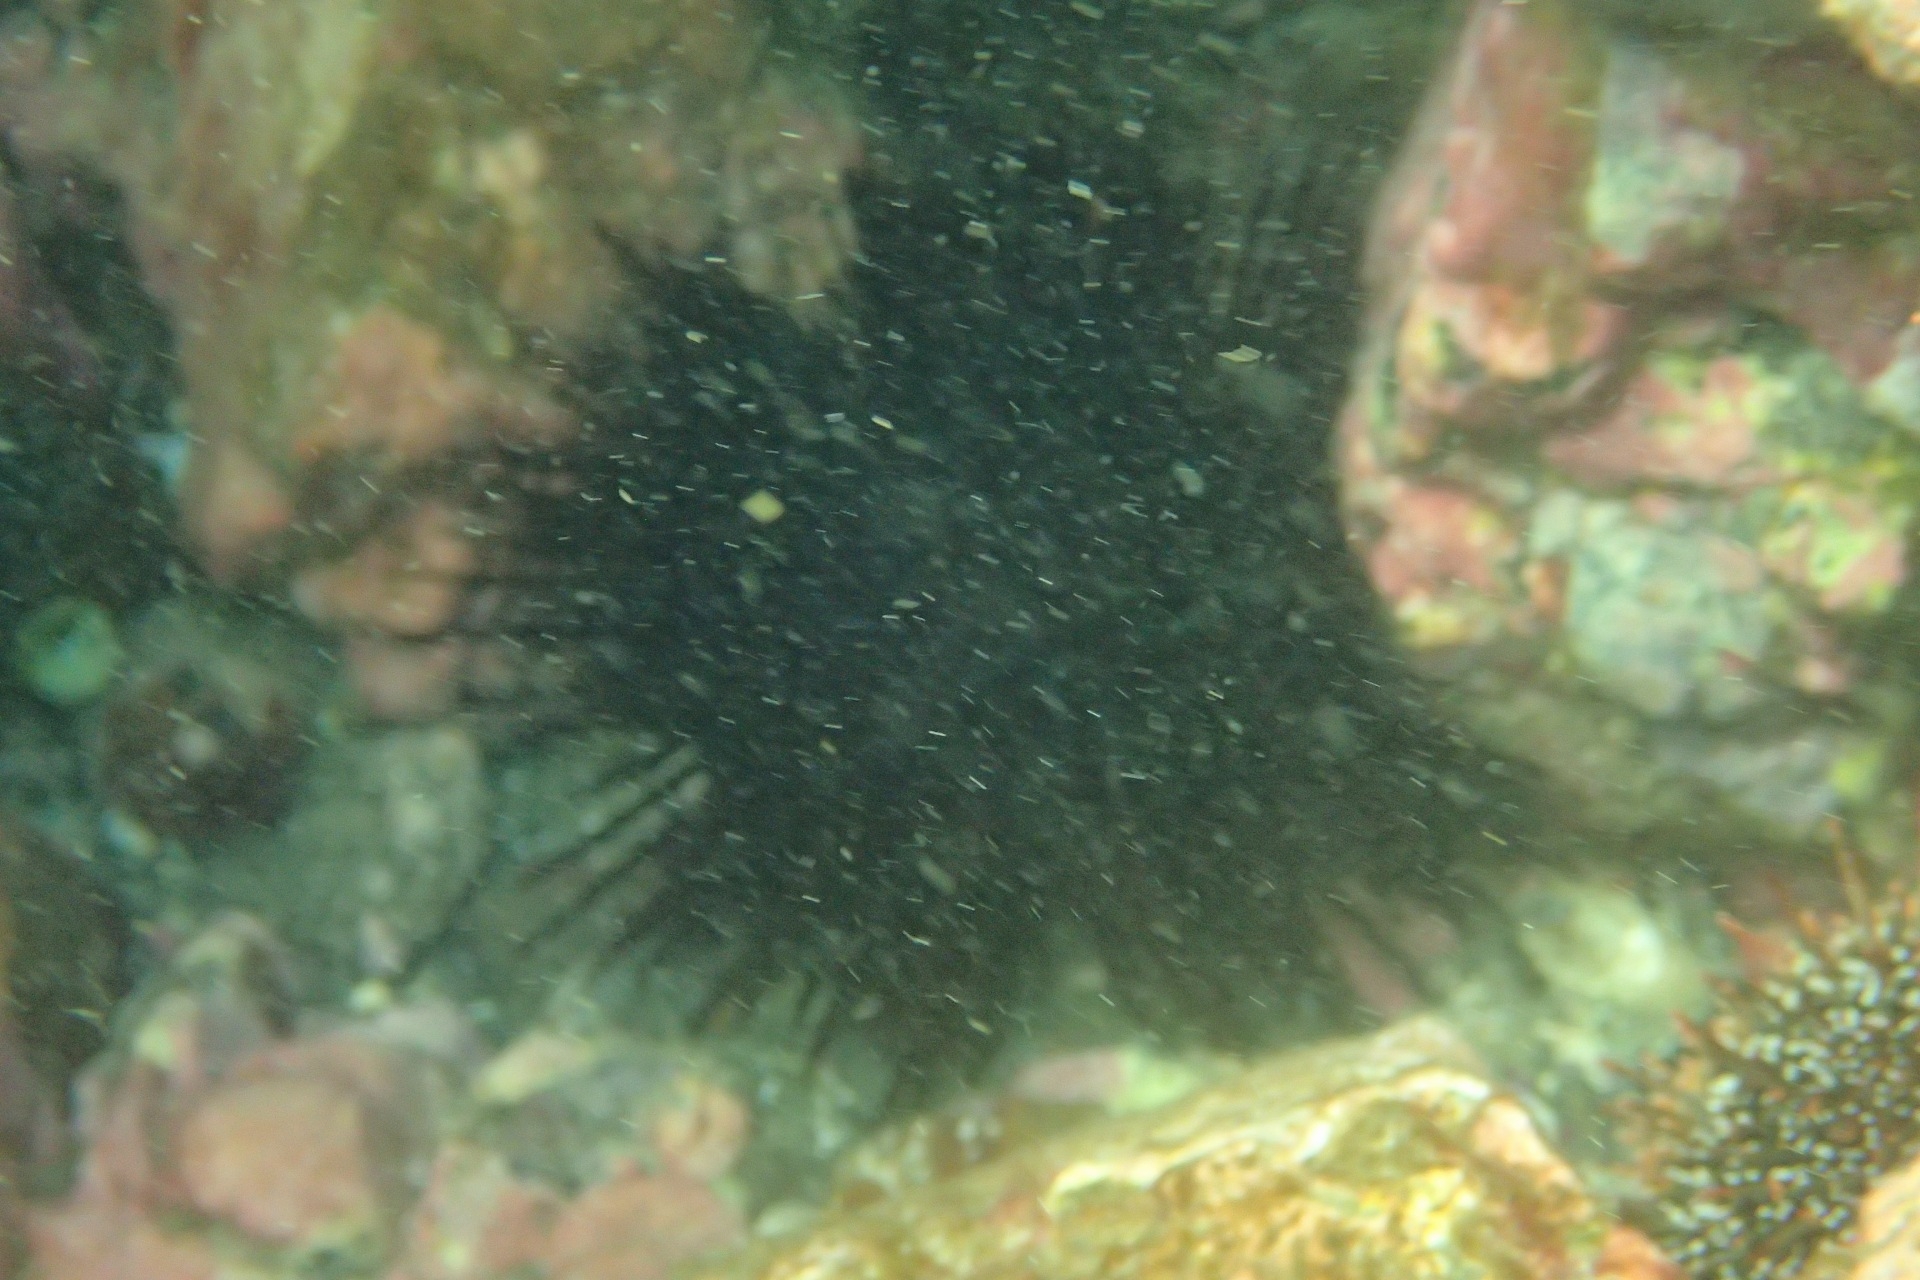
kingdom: Animalia
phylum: Echinodermata
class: Echinoidea
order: Diadematoida
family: Diadematidae
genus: Centrostephanus
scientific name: Centrostephanus rodgersii
